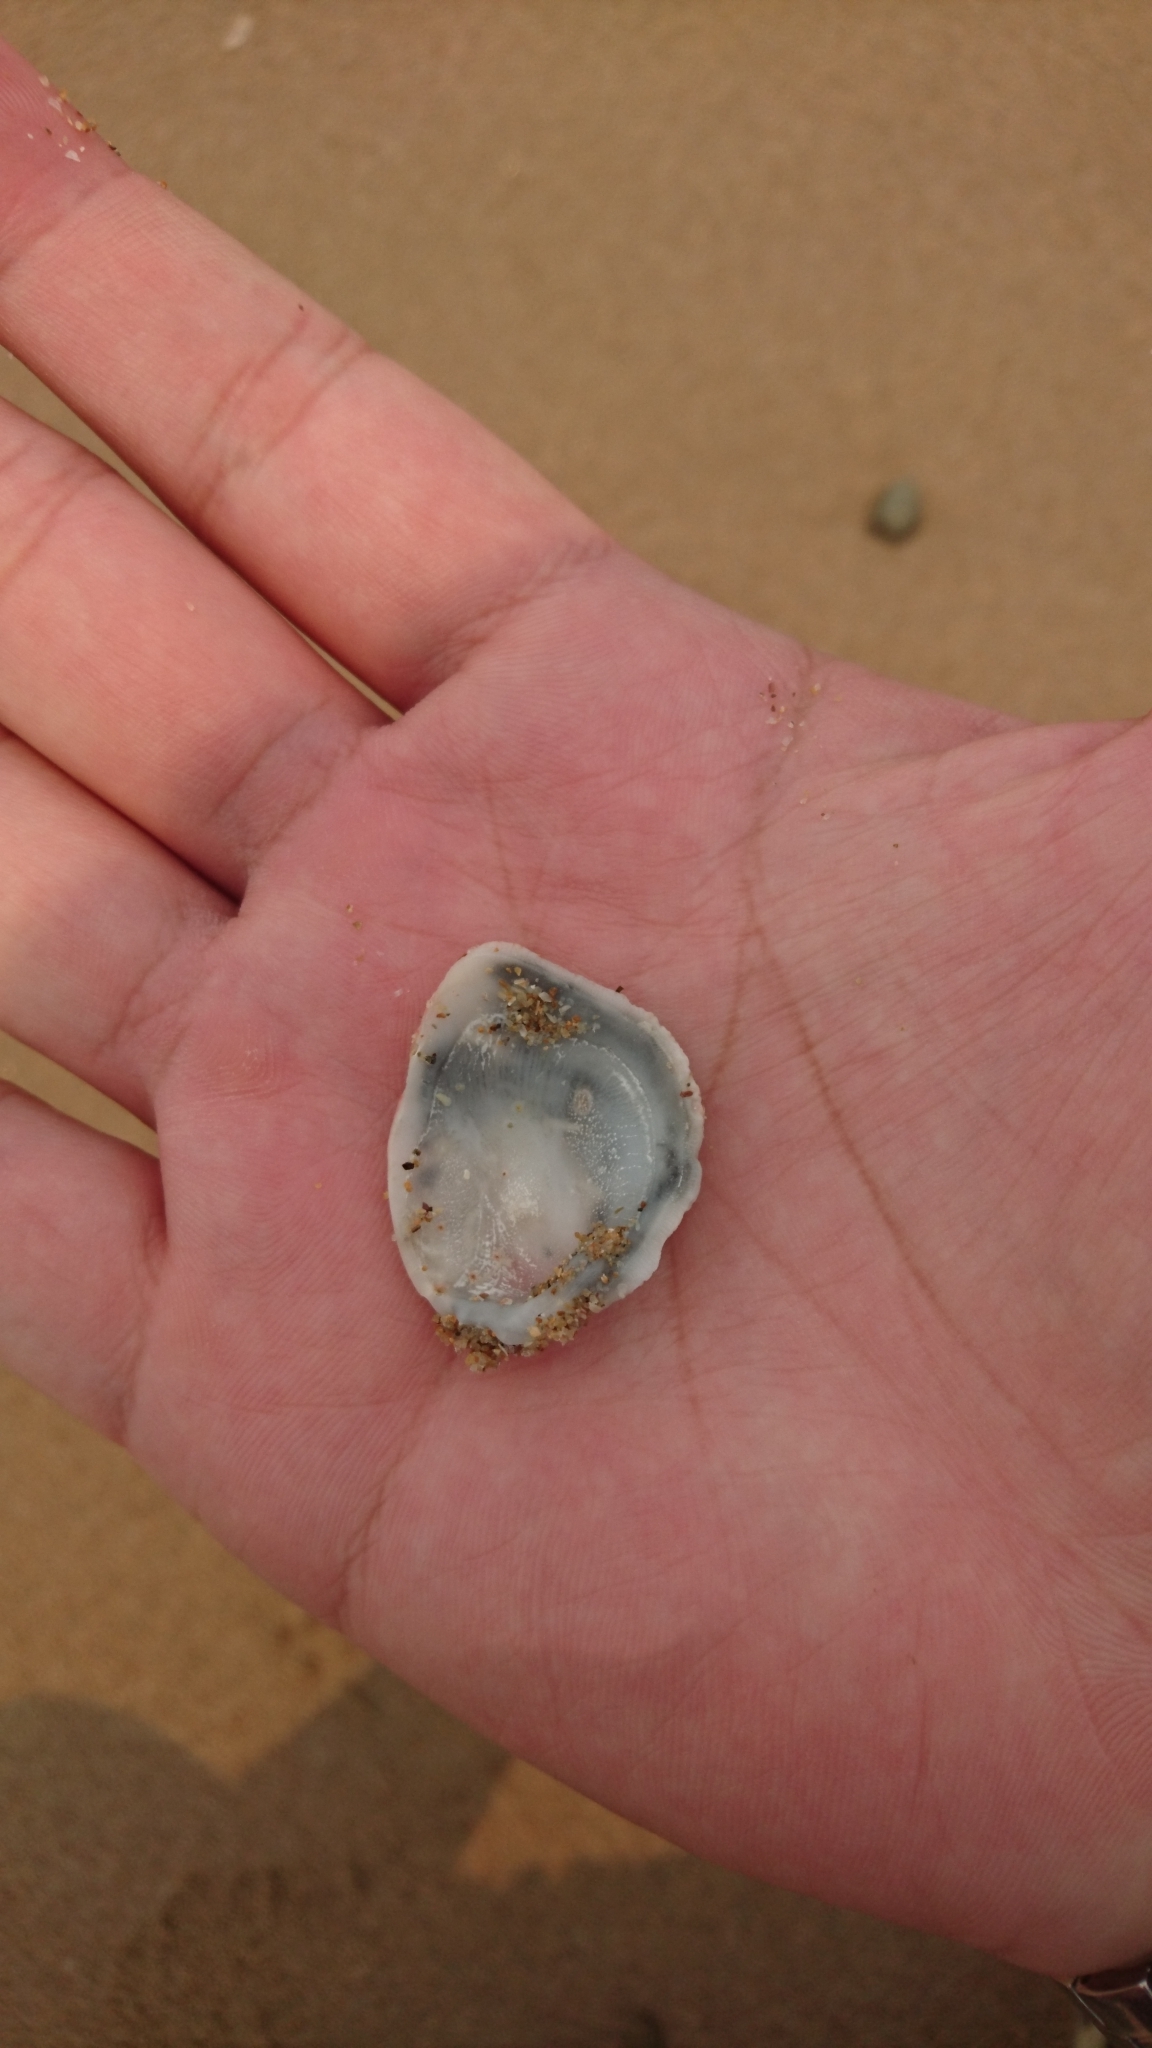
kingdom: Animalia
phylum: Mollusca
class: Bivalvia
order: Venerida
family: Chamidae
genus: Chama
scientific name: Chama asperella
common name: Mollusca
